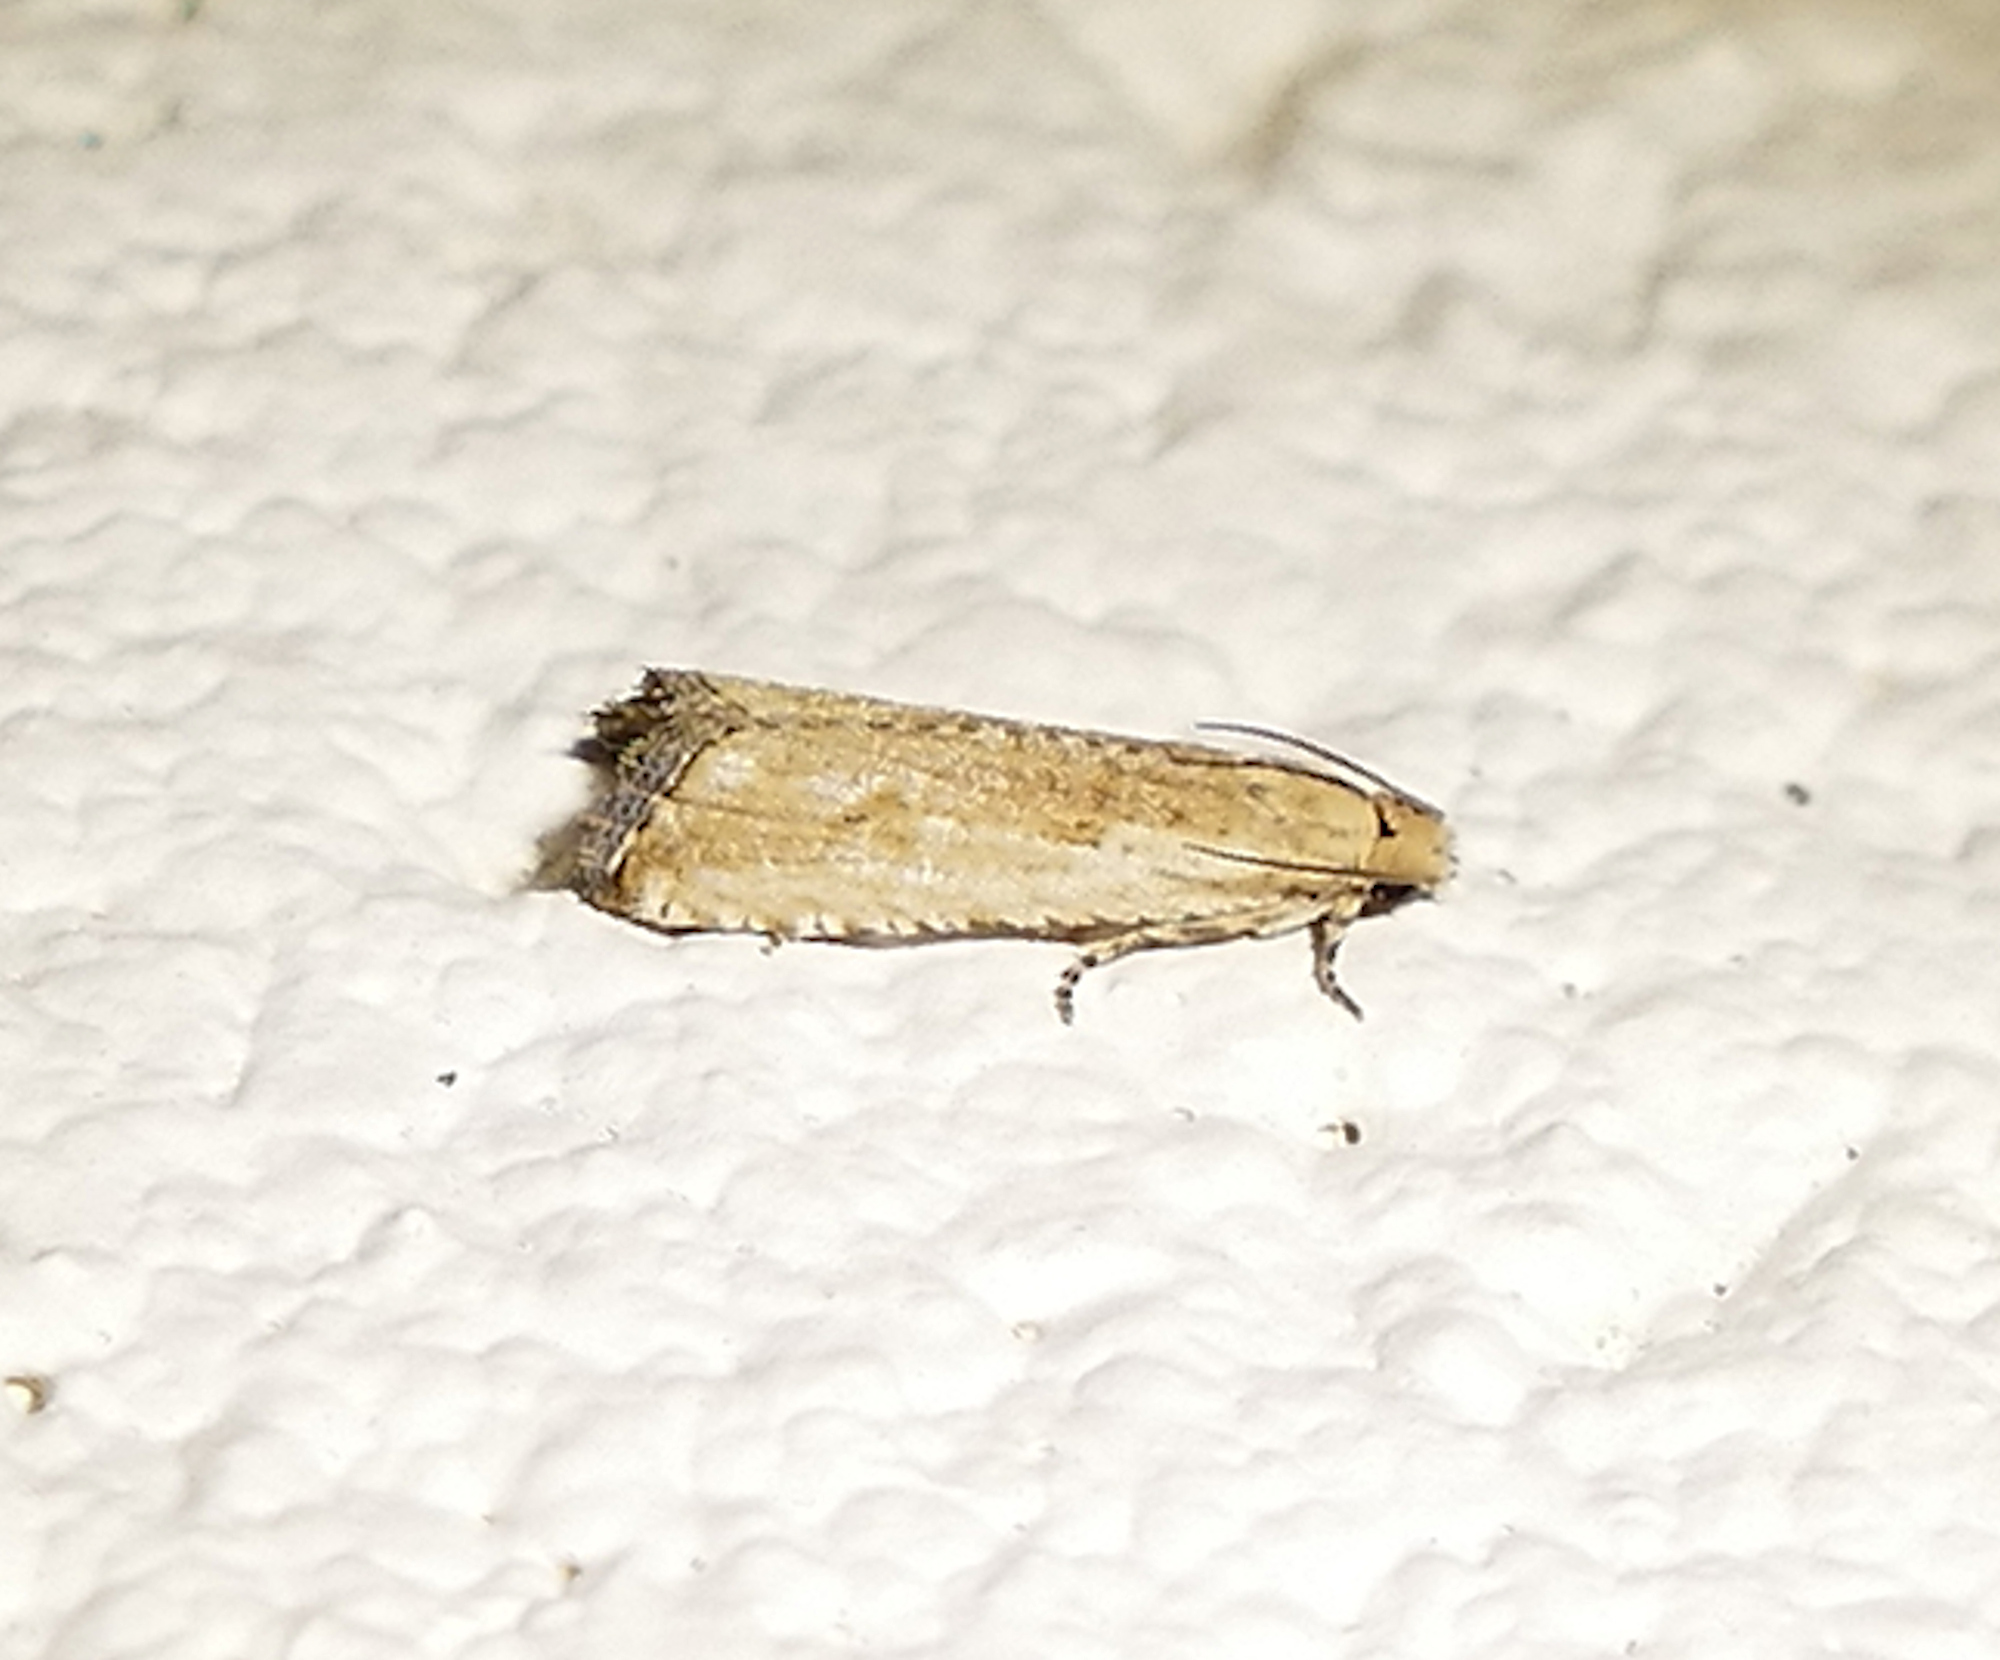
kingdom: Animalia
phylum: Arthropoda
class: Insecta
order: Lepidoptera
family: Tortricidae
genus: Bactra
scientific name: Bactra verutana
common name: Javelin moth
